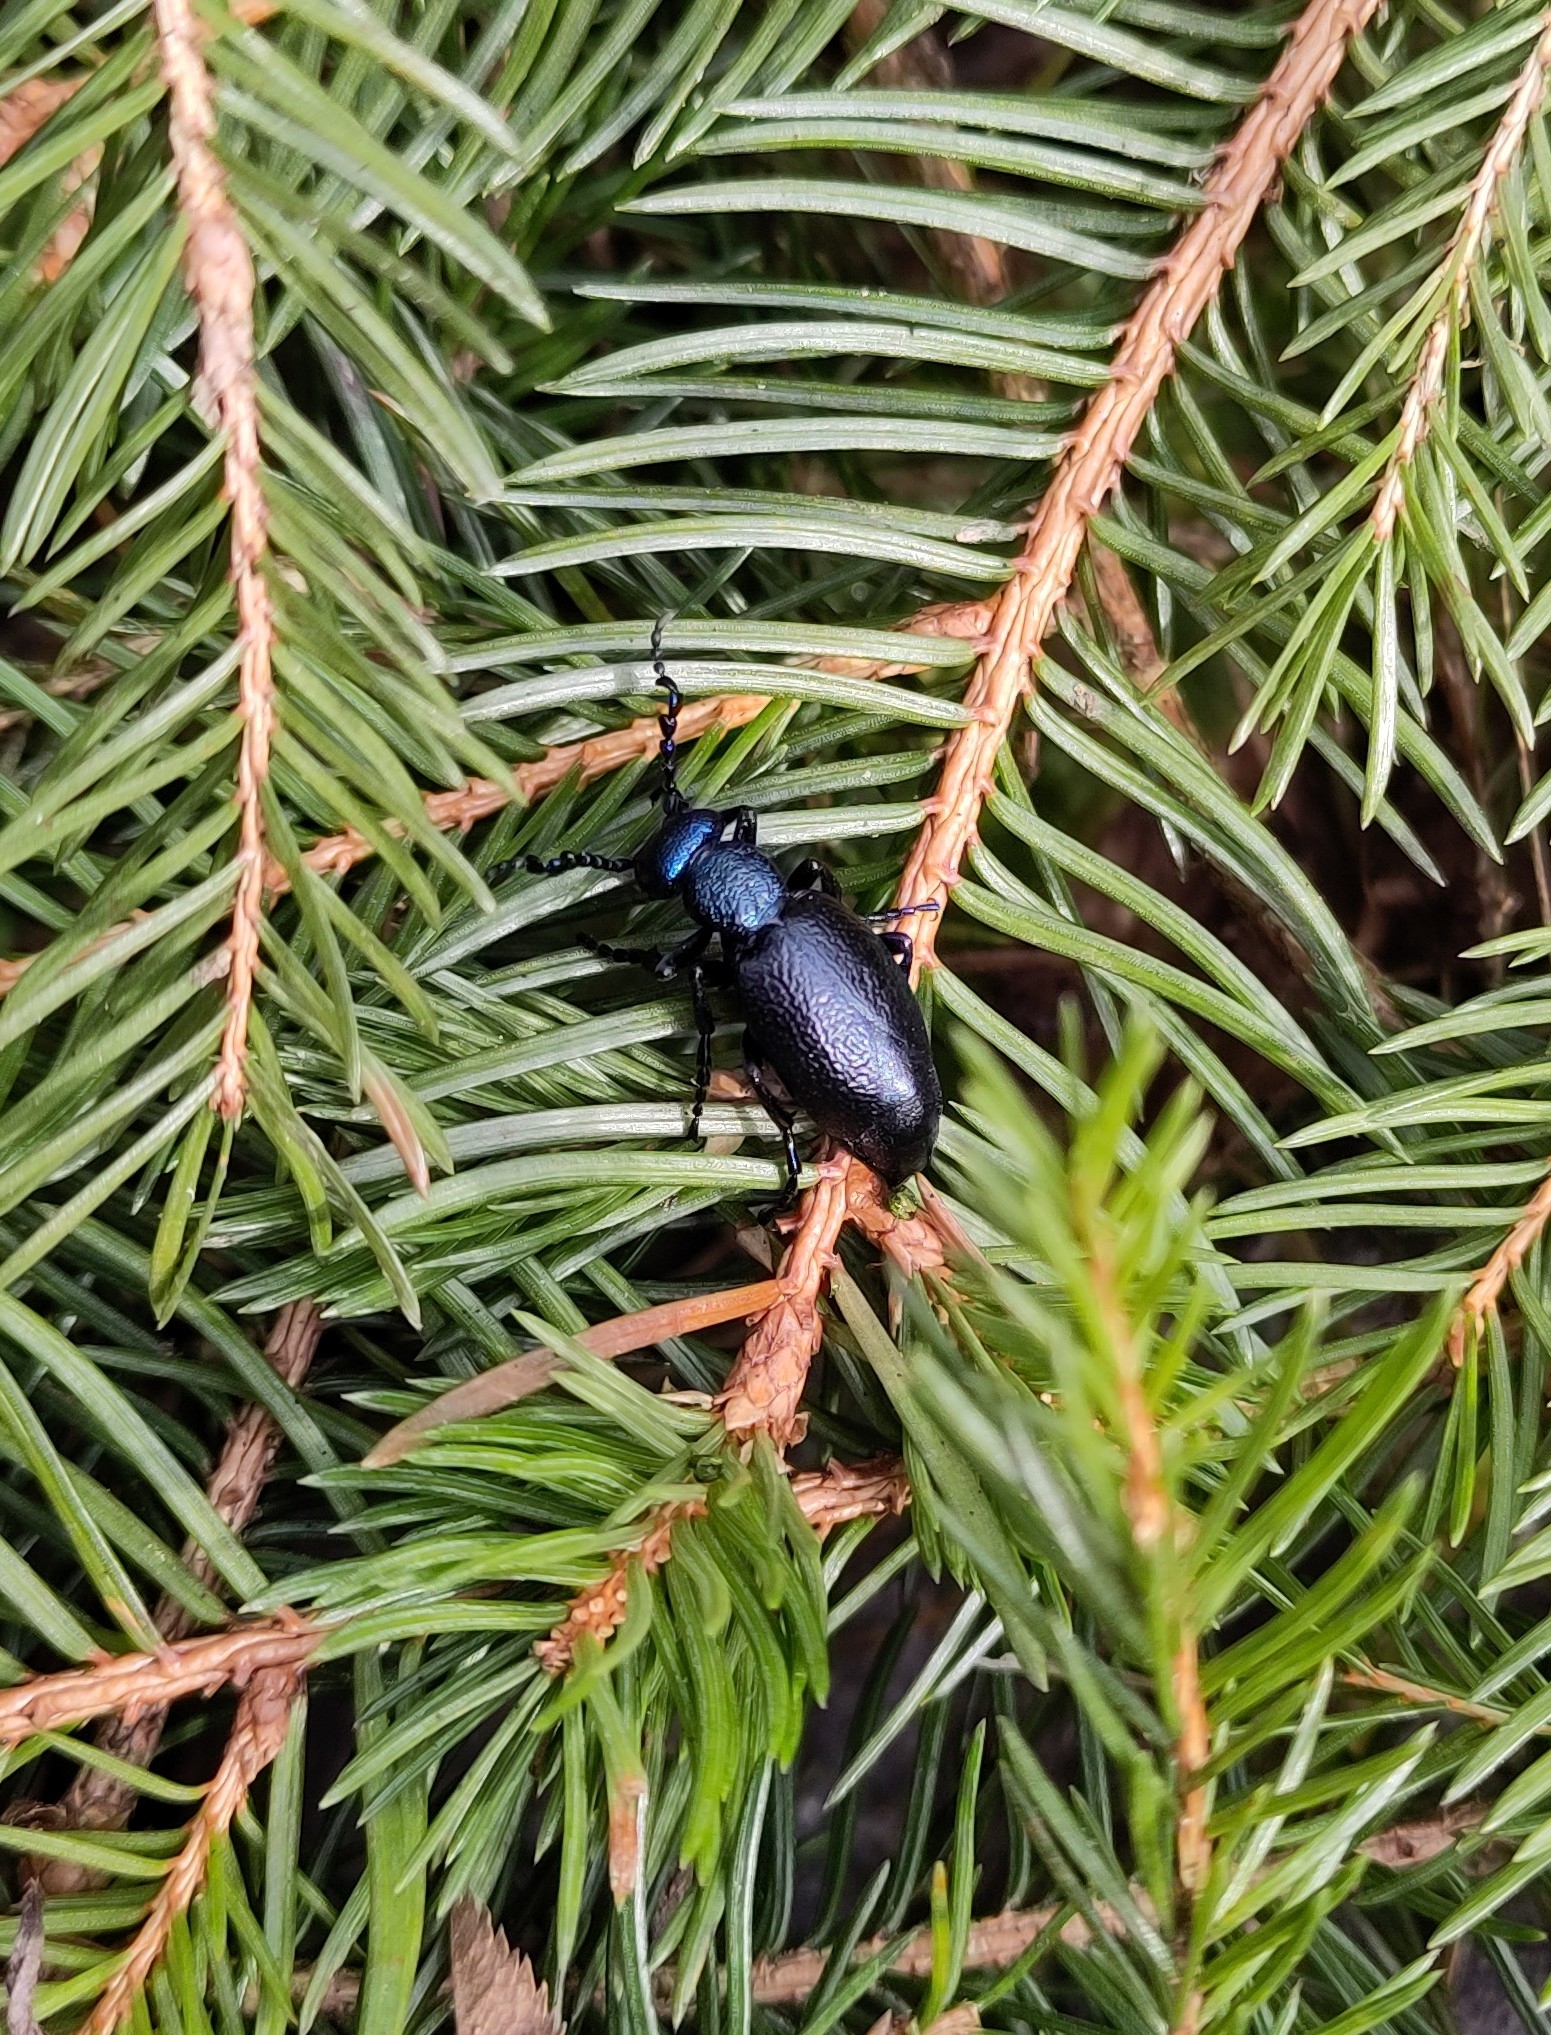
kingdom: Animalia
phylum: Arthropoda
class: Insecta
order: Coleoptera
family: Meloidae
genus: Meloe
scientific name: Meloe proscarabaeus
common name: Black oil-beetle
